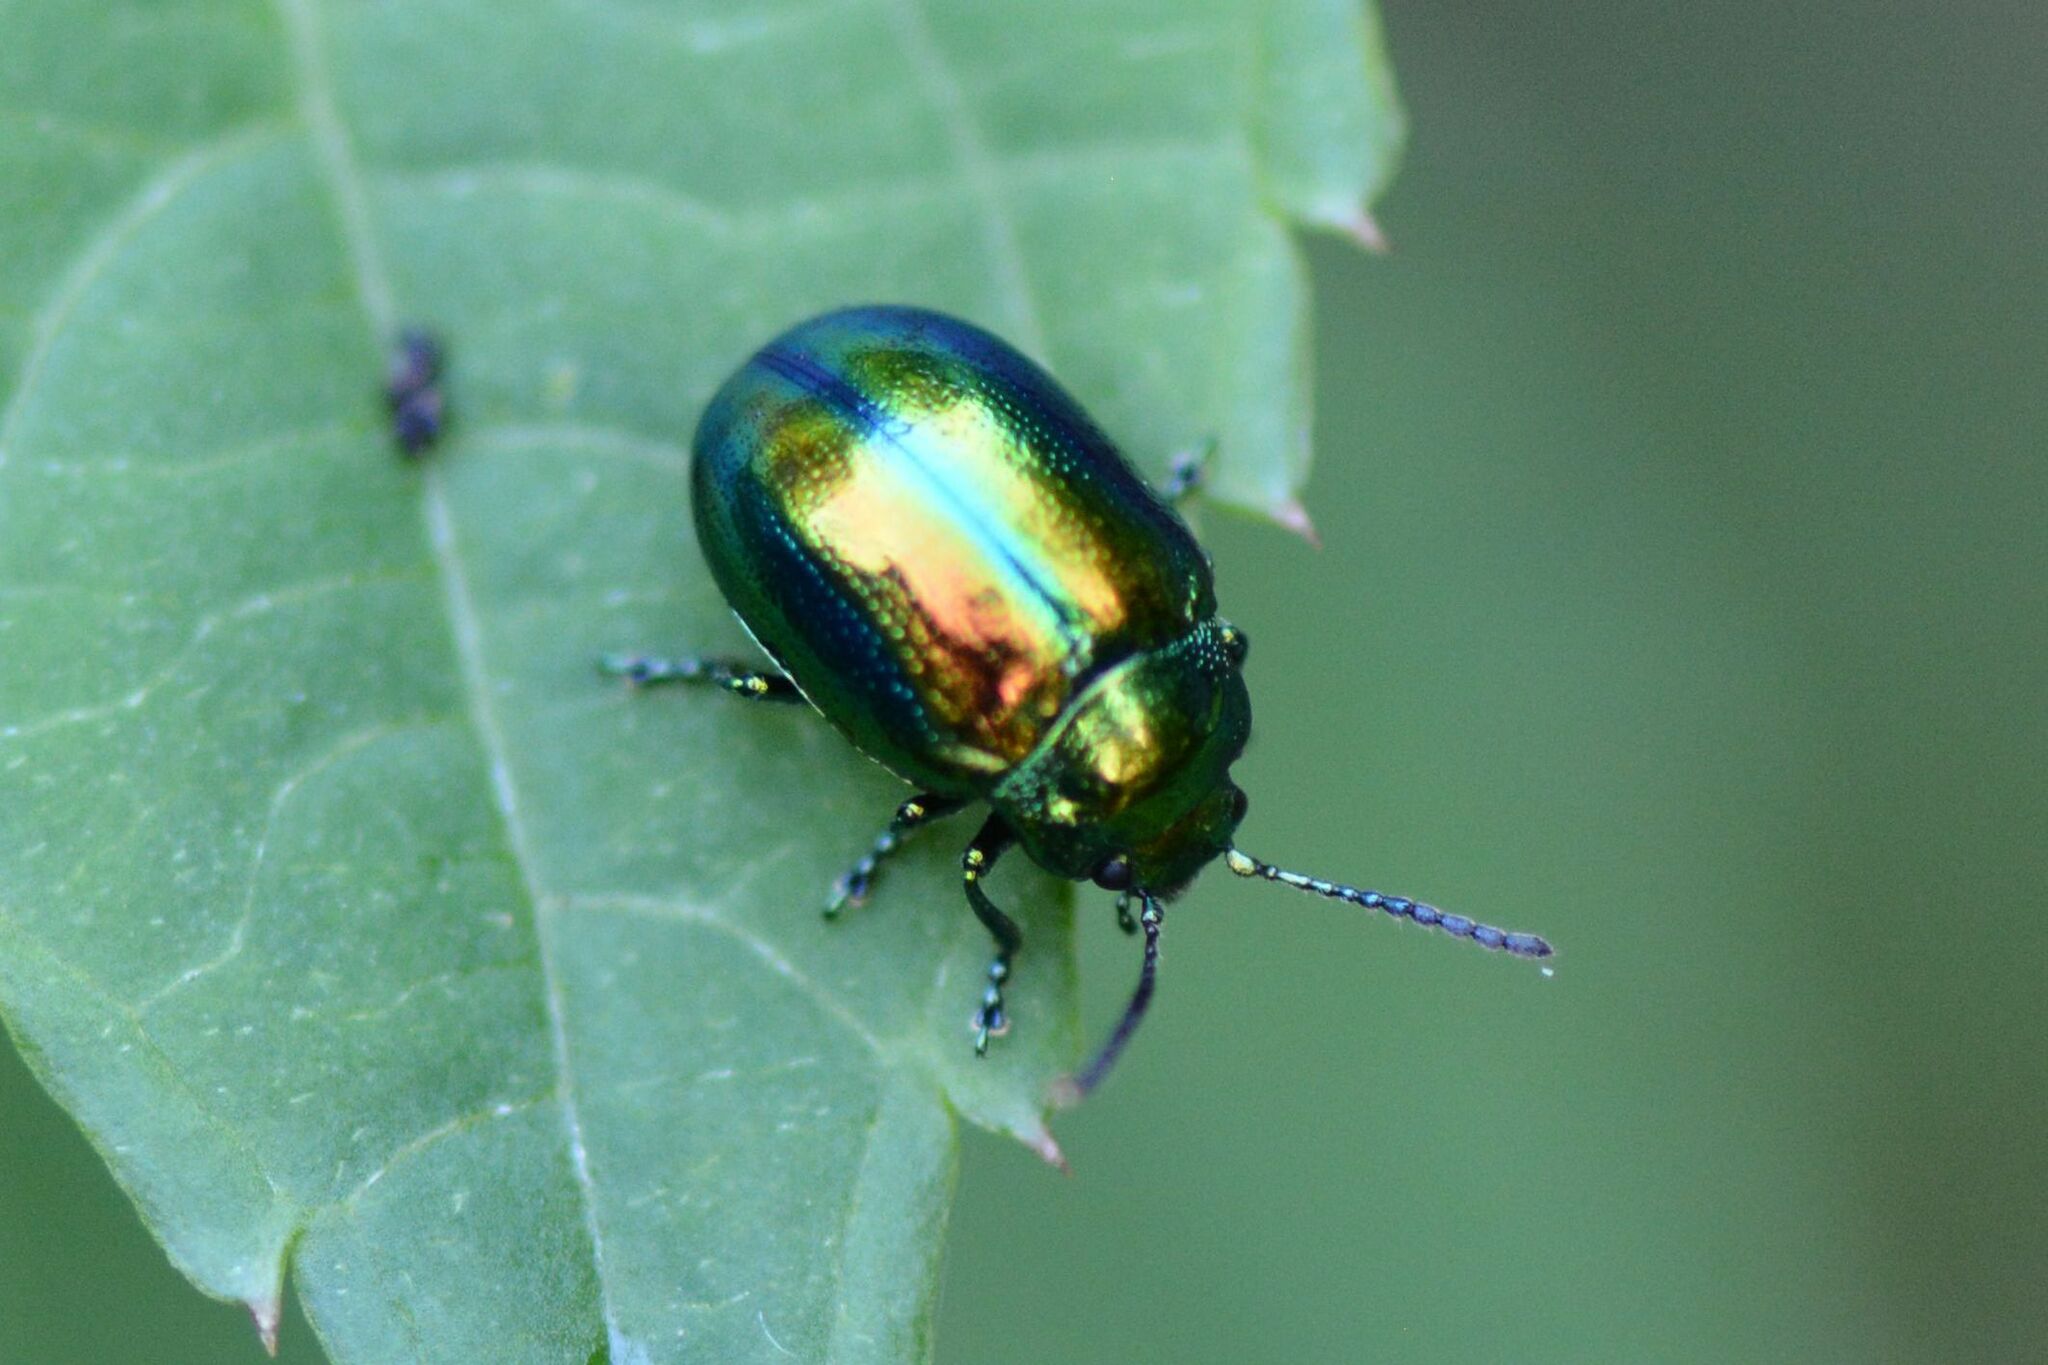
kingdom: Animalia
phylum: Arthropoda
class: Insecta
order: Coleoptera
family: Chrysomelidae
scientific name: Chrysomelidae
